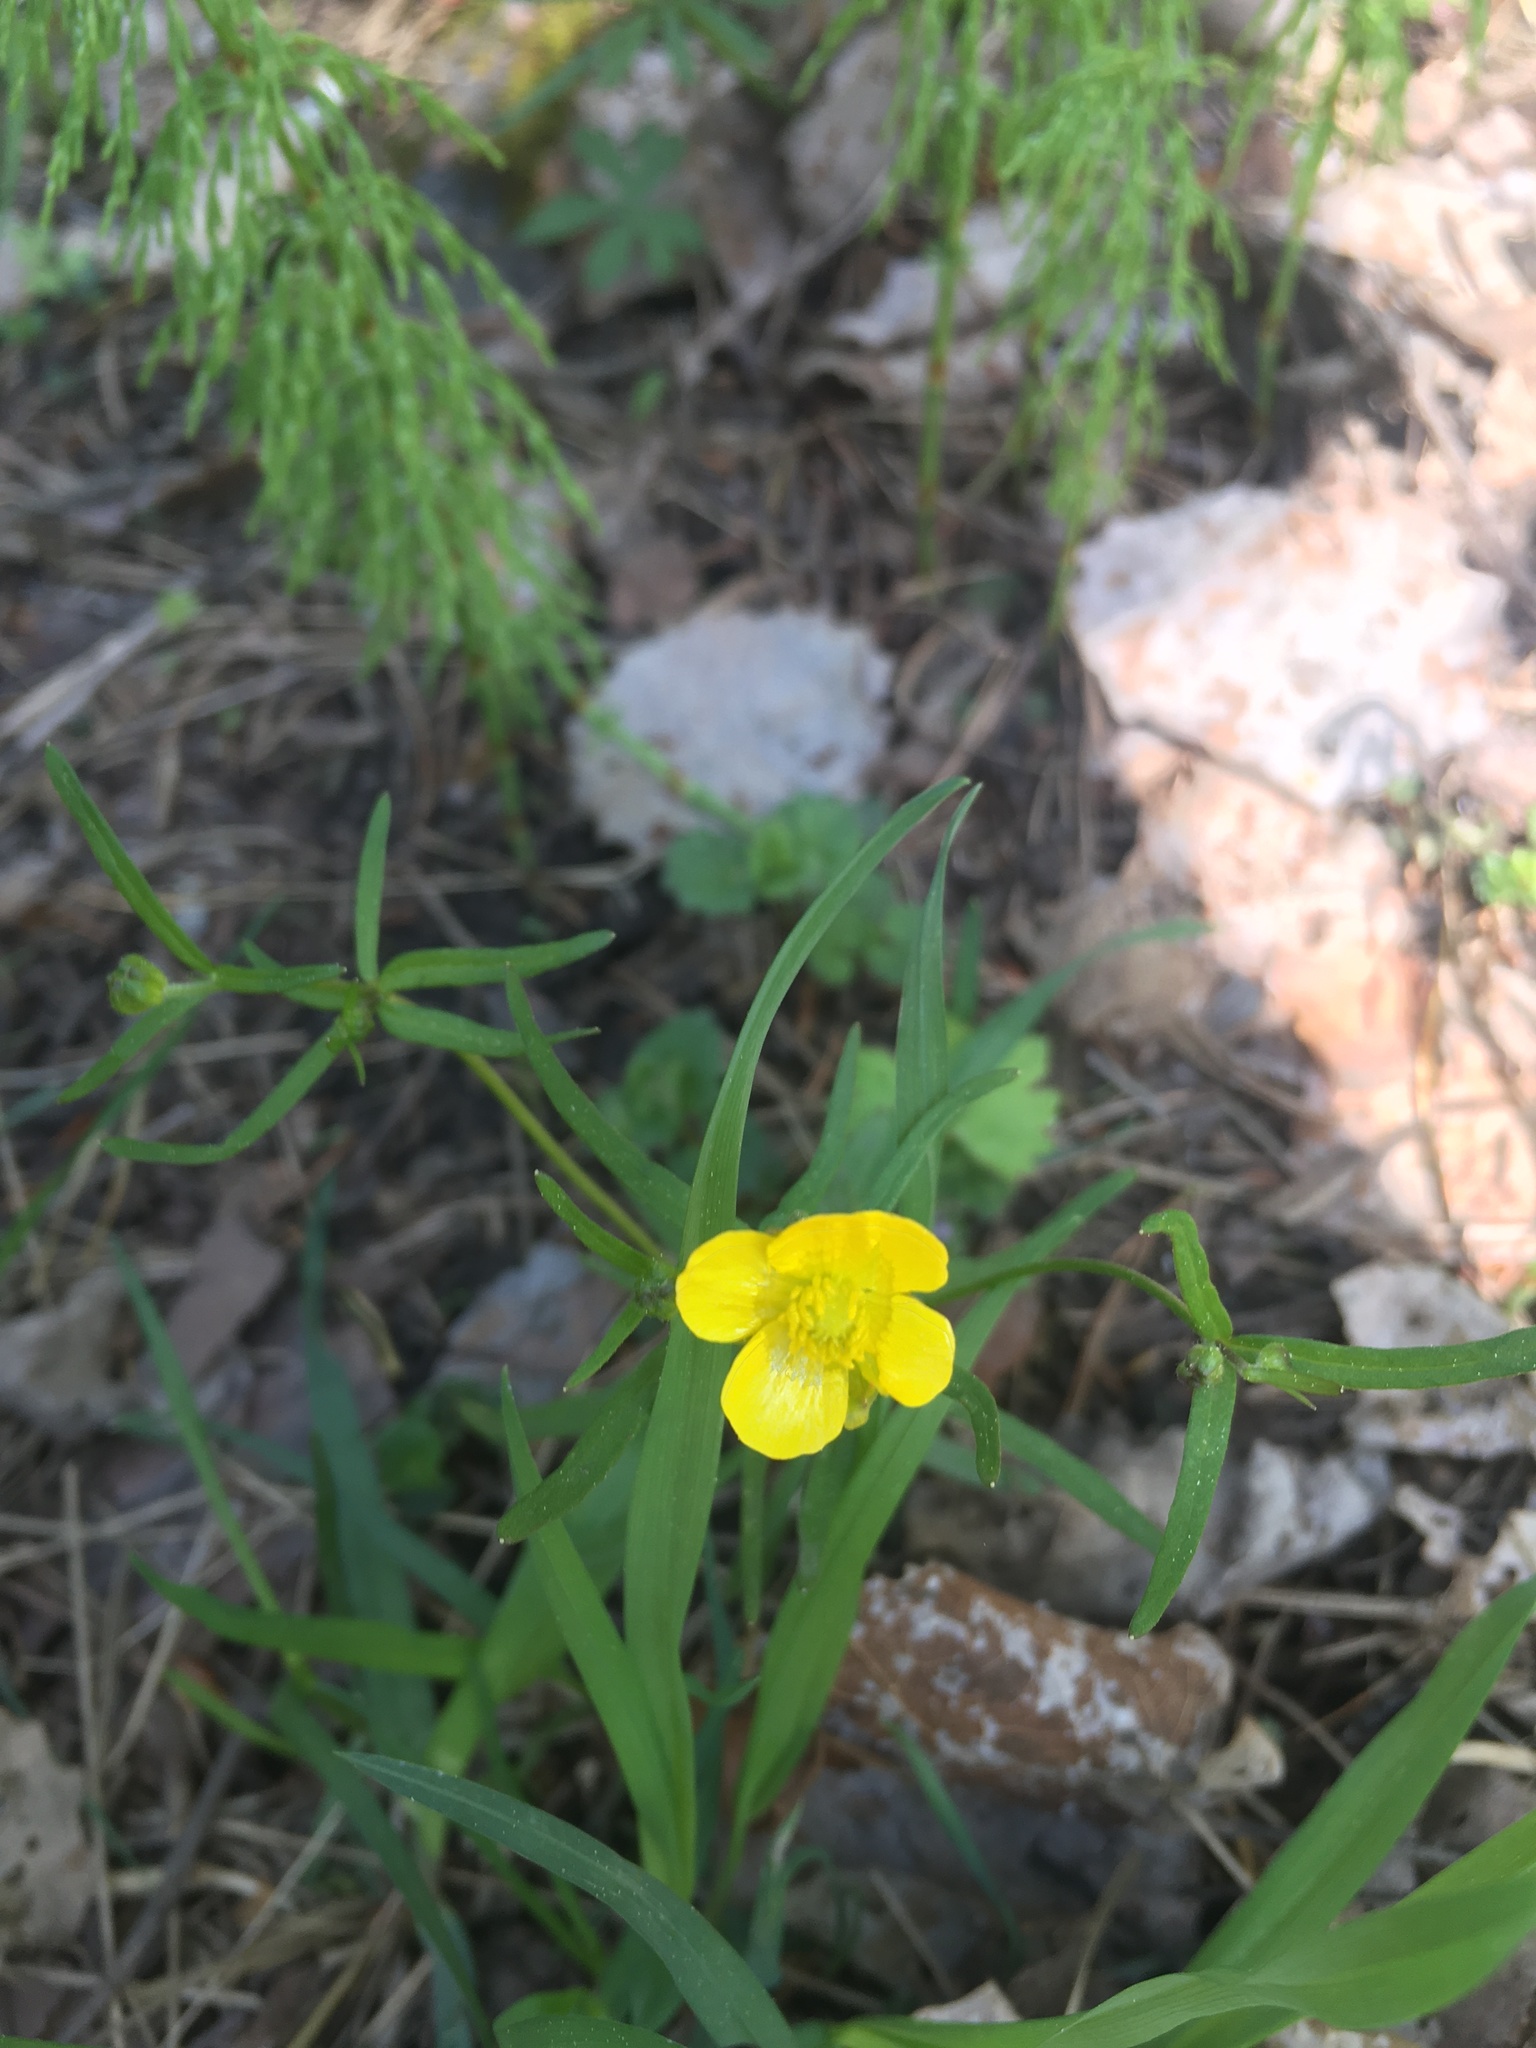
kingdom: Plantae
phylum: Tracheophyta
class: Magnoliopsida
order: Ranunculales
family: Ranunculaceae
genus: Ranunculus
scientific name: Ranunculus auricomus
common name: Goldilocks buttercup
